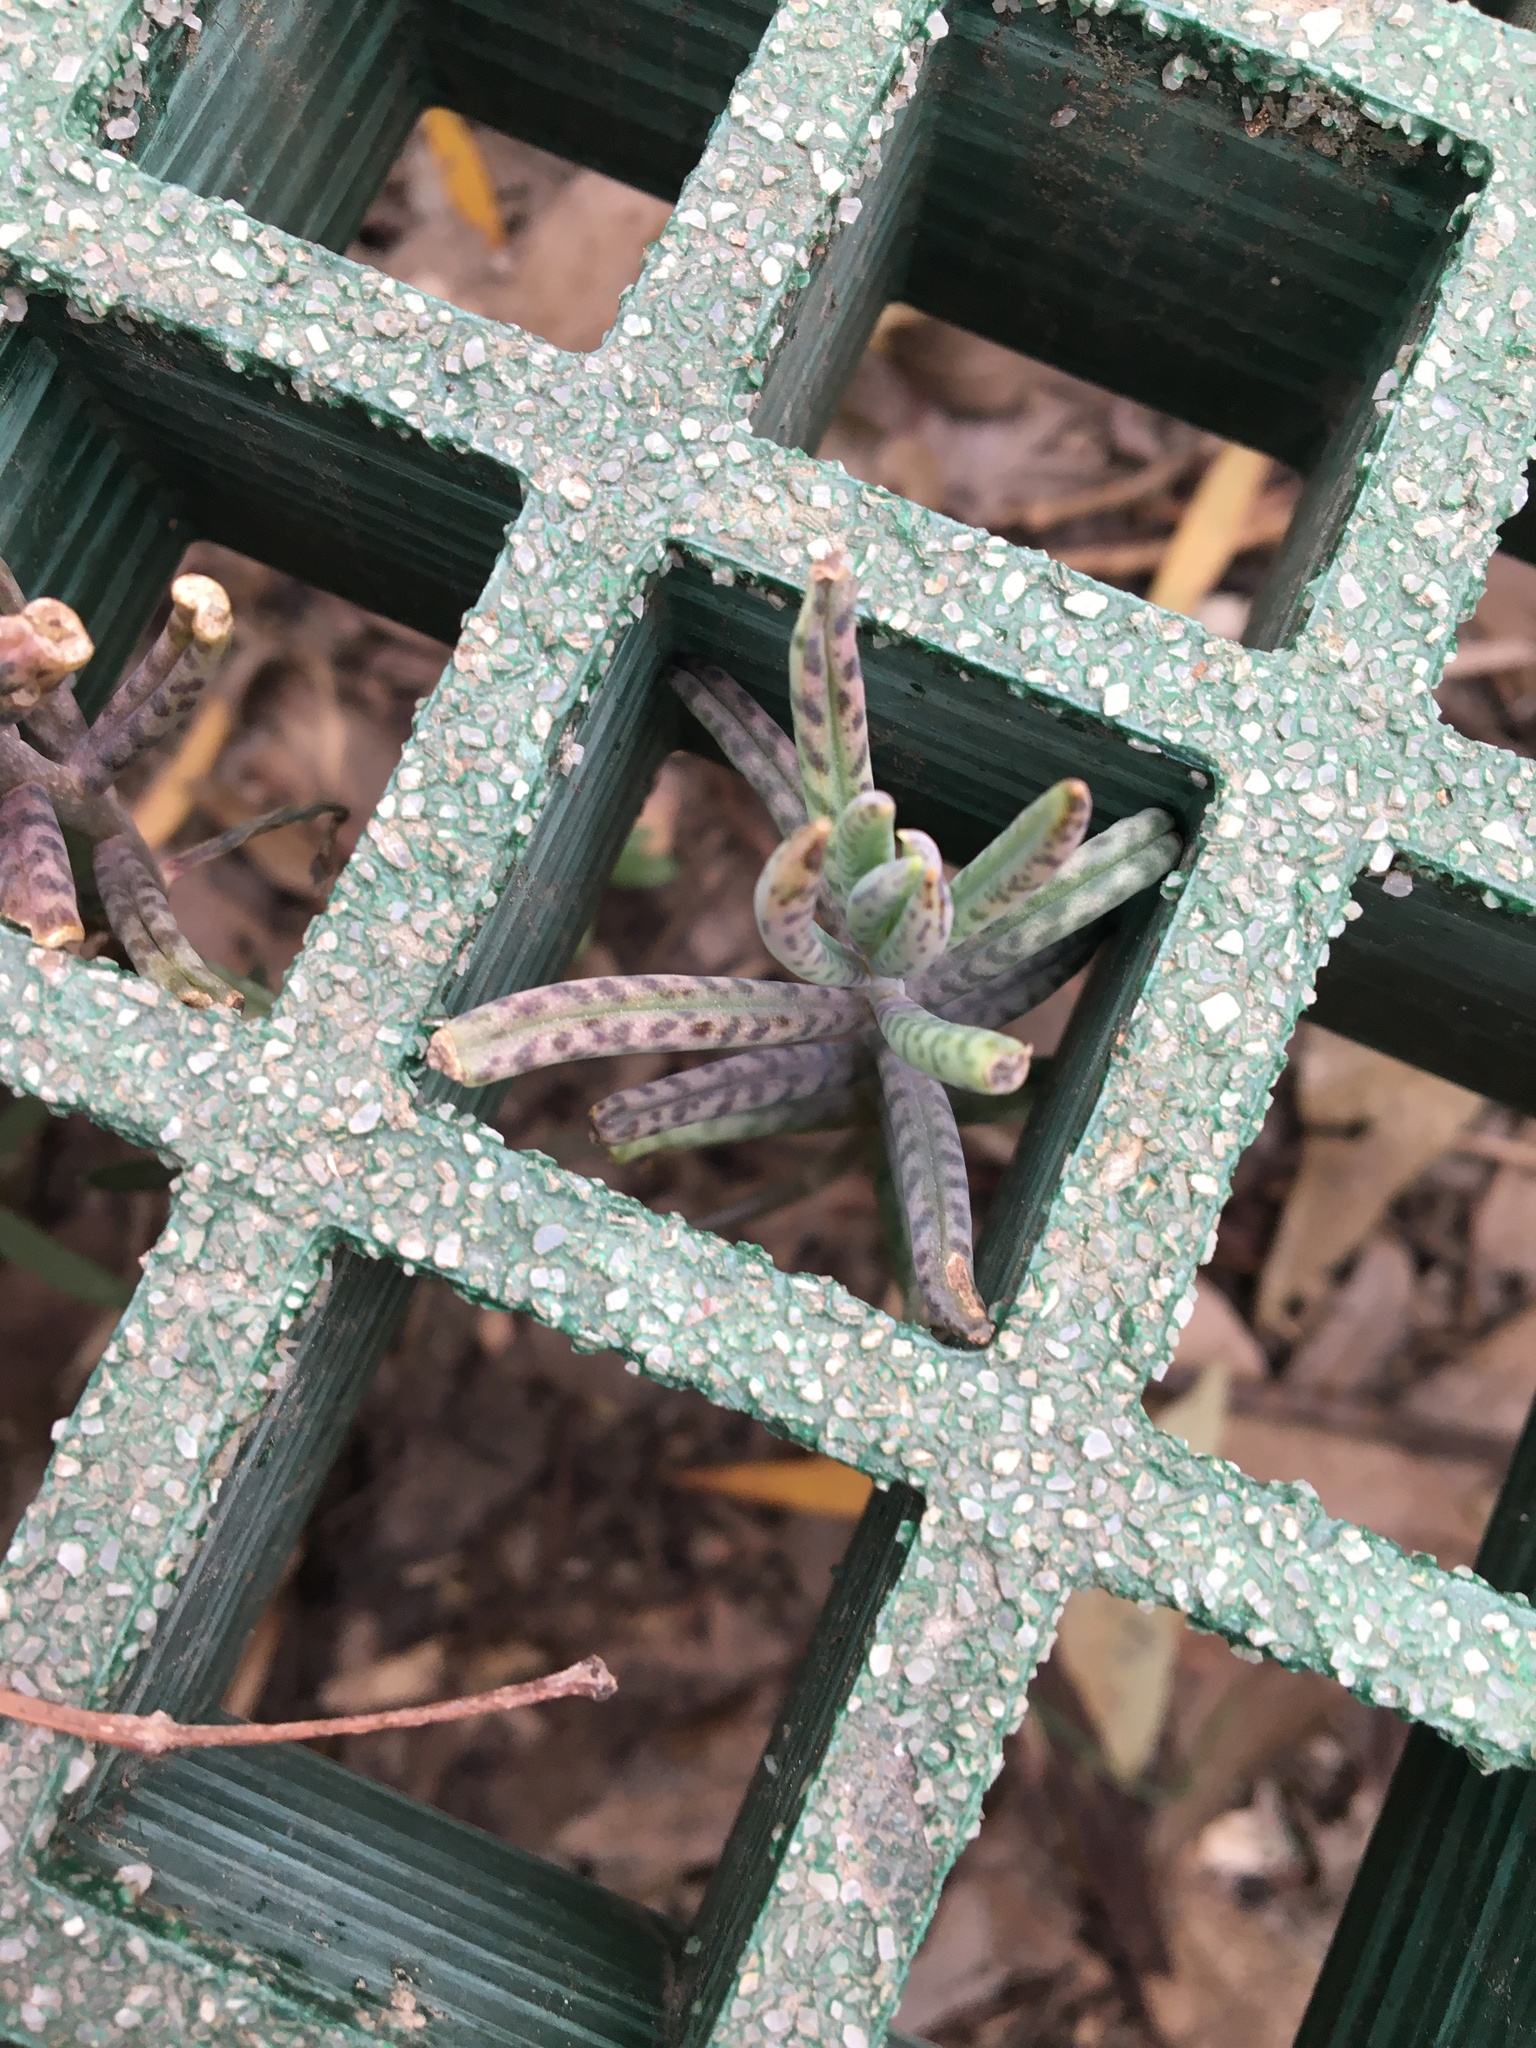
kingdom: Plantae
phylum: Tracheophyta
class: Magnoliopsida
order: Saxifragales
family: Crassulaceae
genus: Kalanchoe
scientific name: Kalanchoe delagoensis
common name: Chandelier plant
